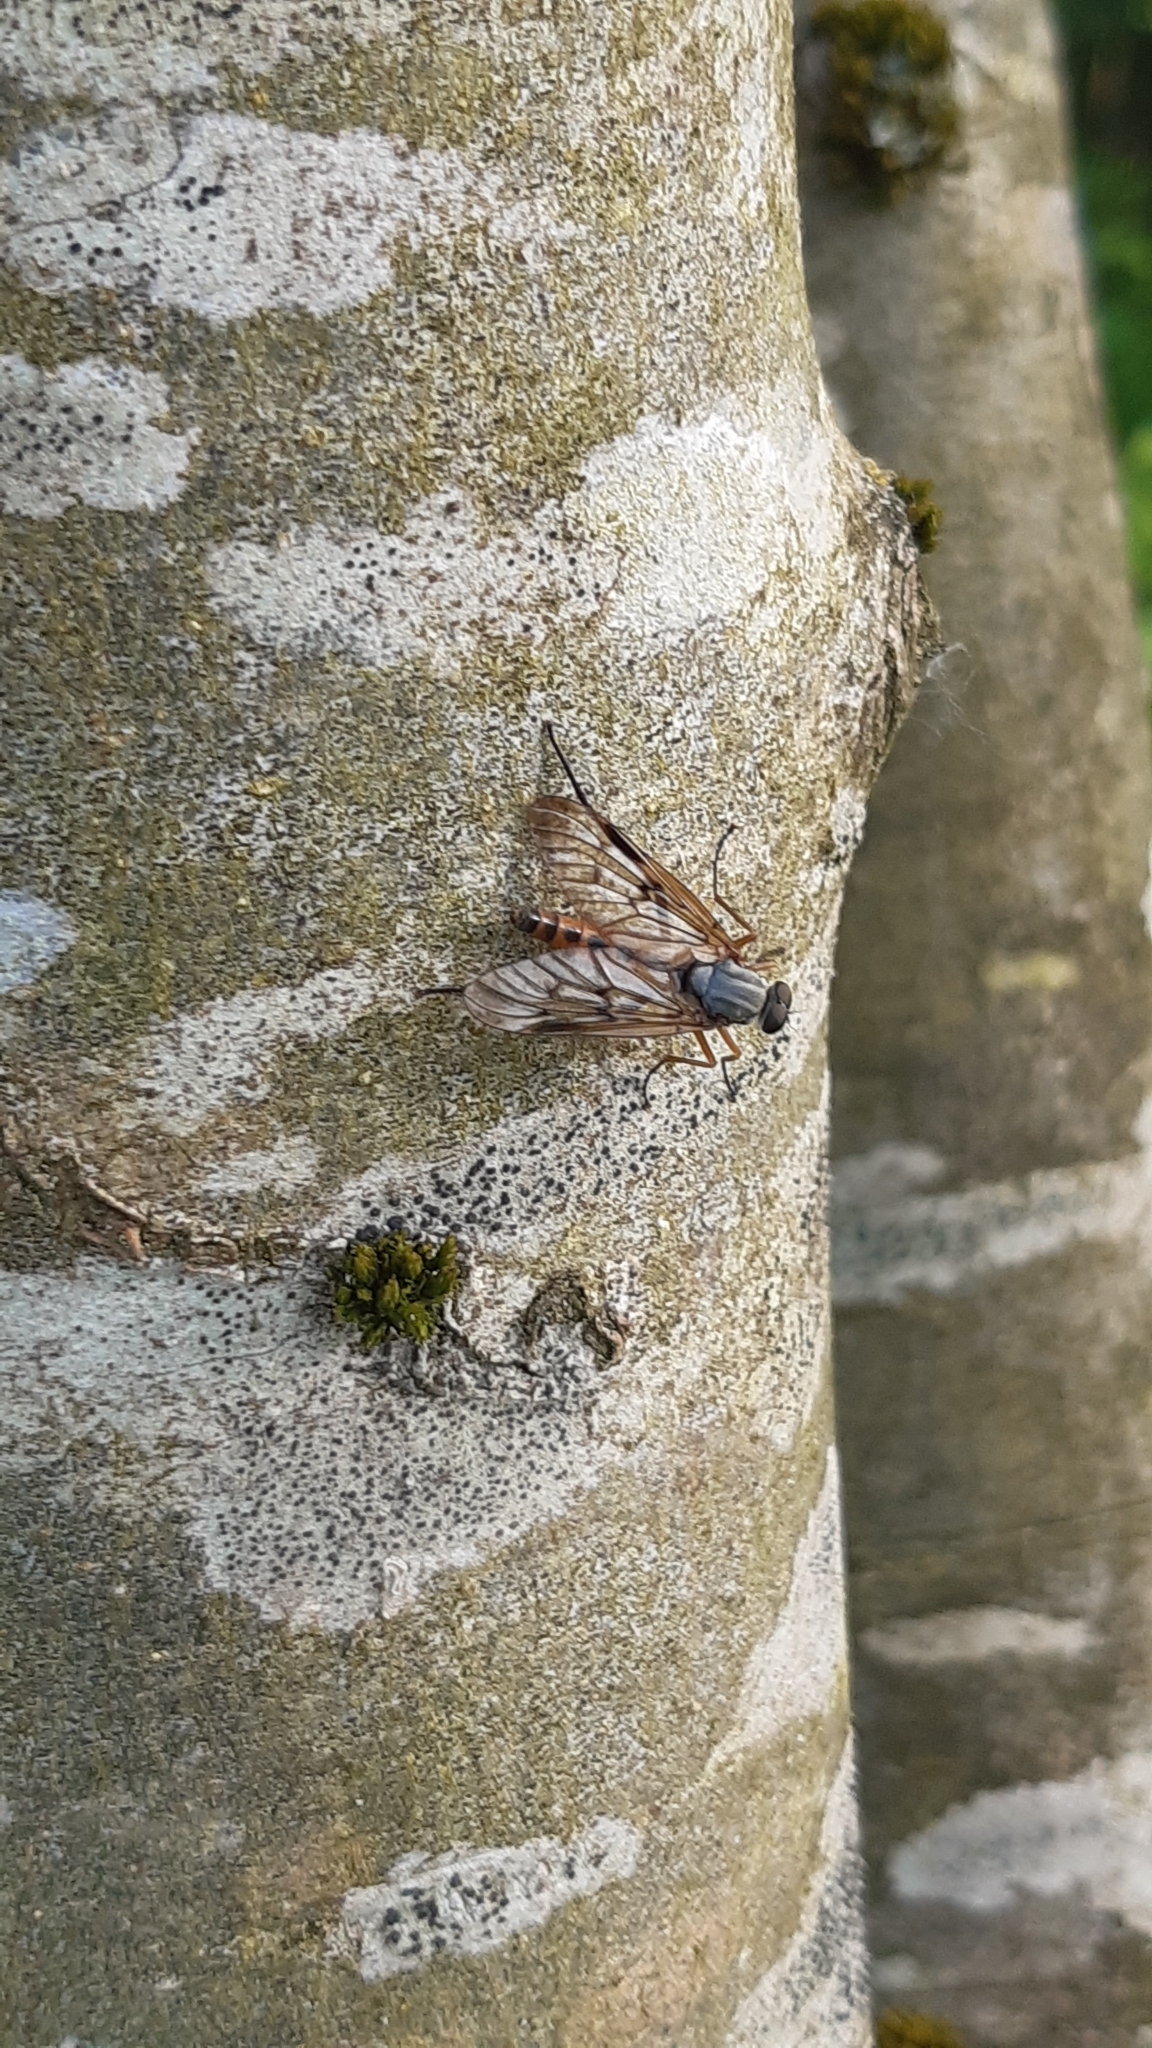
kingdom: Animalia
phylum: Arthropoda
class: Insecta
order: Diptera
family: Rhagionidae
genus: Rhagio
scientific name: Rhagio scolopacea
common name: Downlooker snipefly
